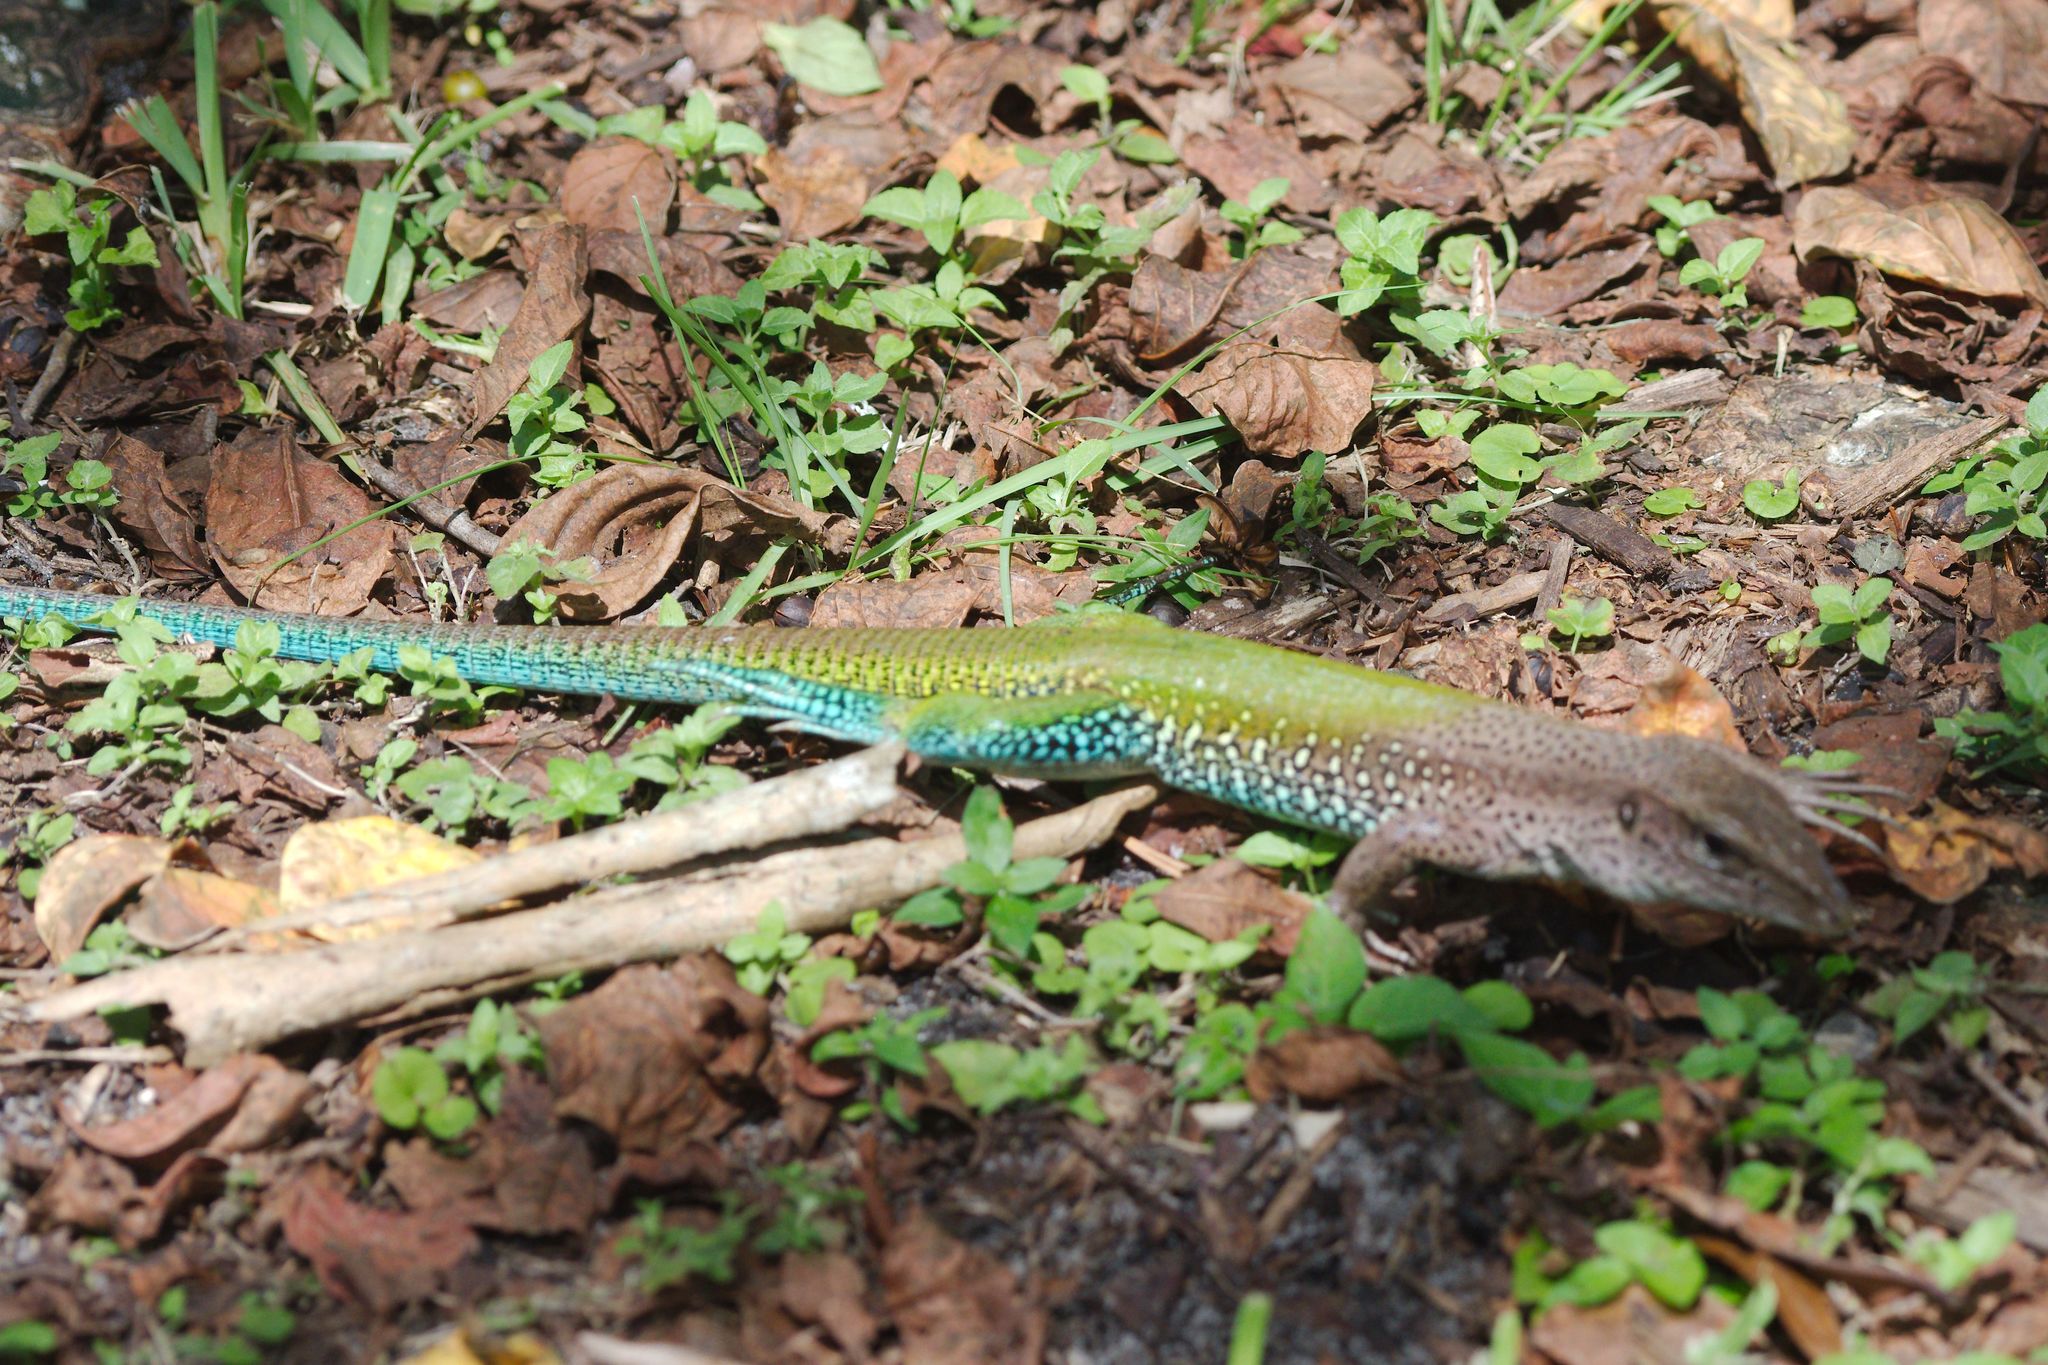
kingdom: Animalia
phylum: Chordata
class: Squamata
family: Teiidae
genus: Ameiva
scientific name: Ameiva ameiva
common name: Giant ameiva
